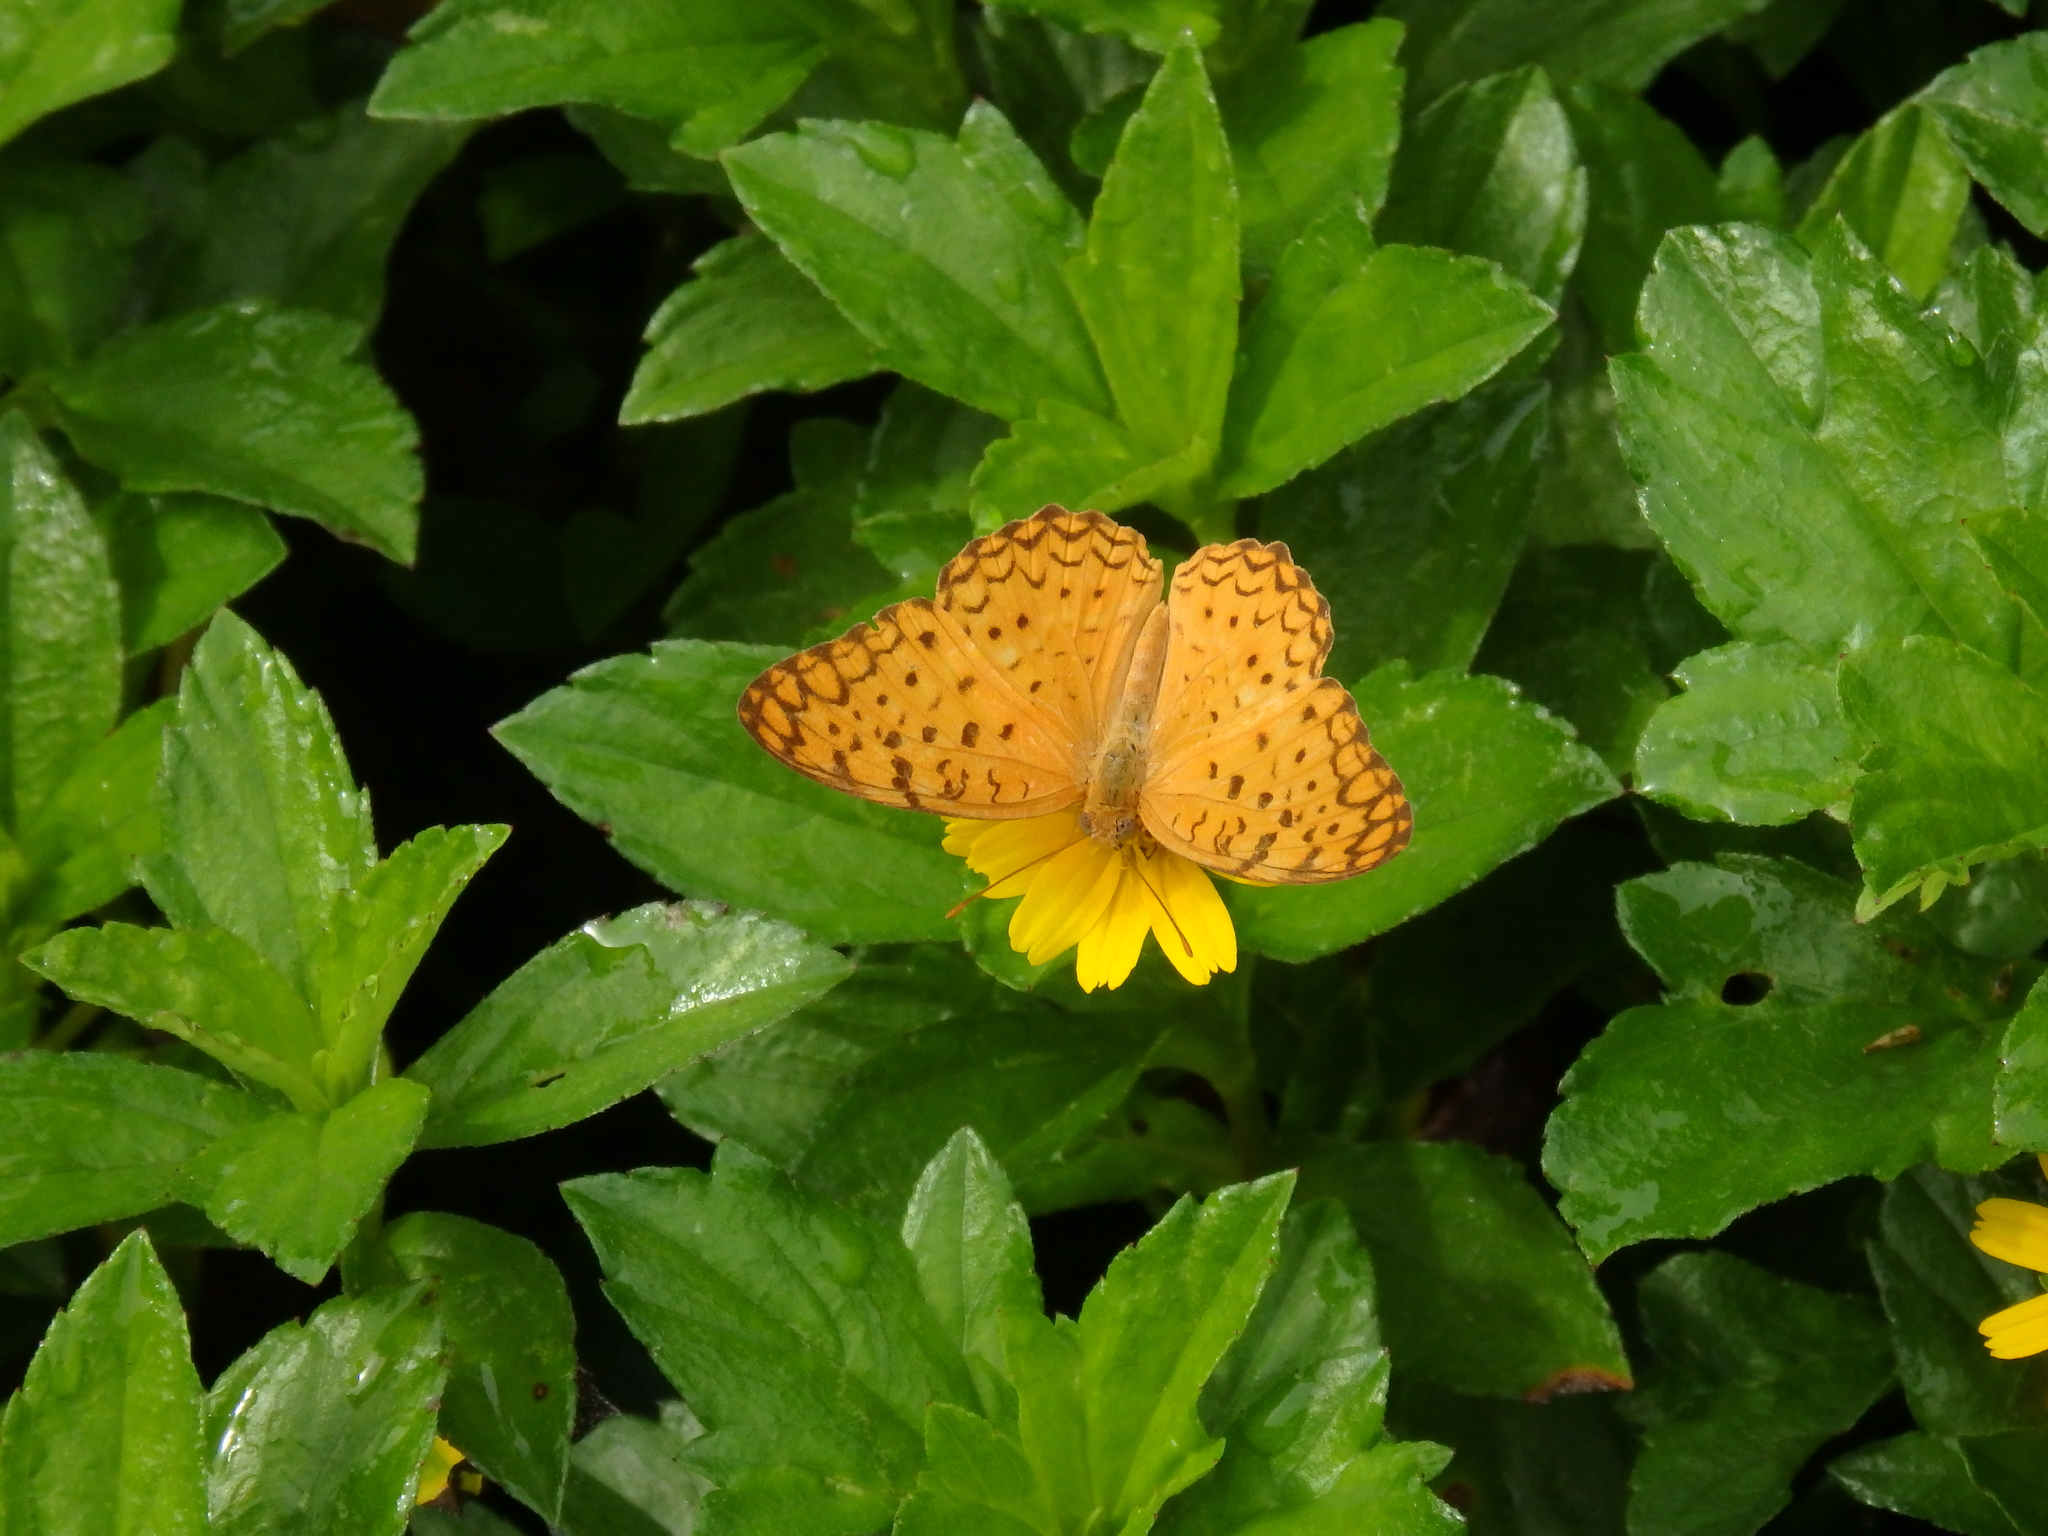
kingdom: Animalia
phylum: Arthropoda
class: Insecta
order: Lepidoptera
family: Nymphalidae
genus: Phalanta
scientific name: Phalanta phalantha
